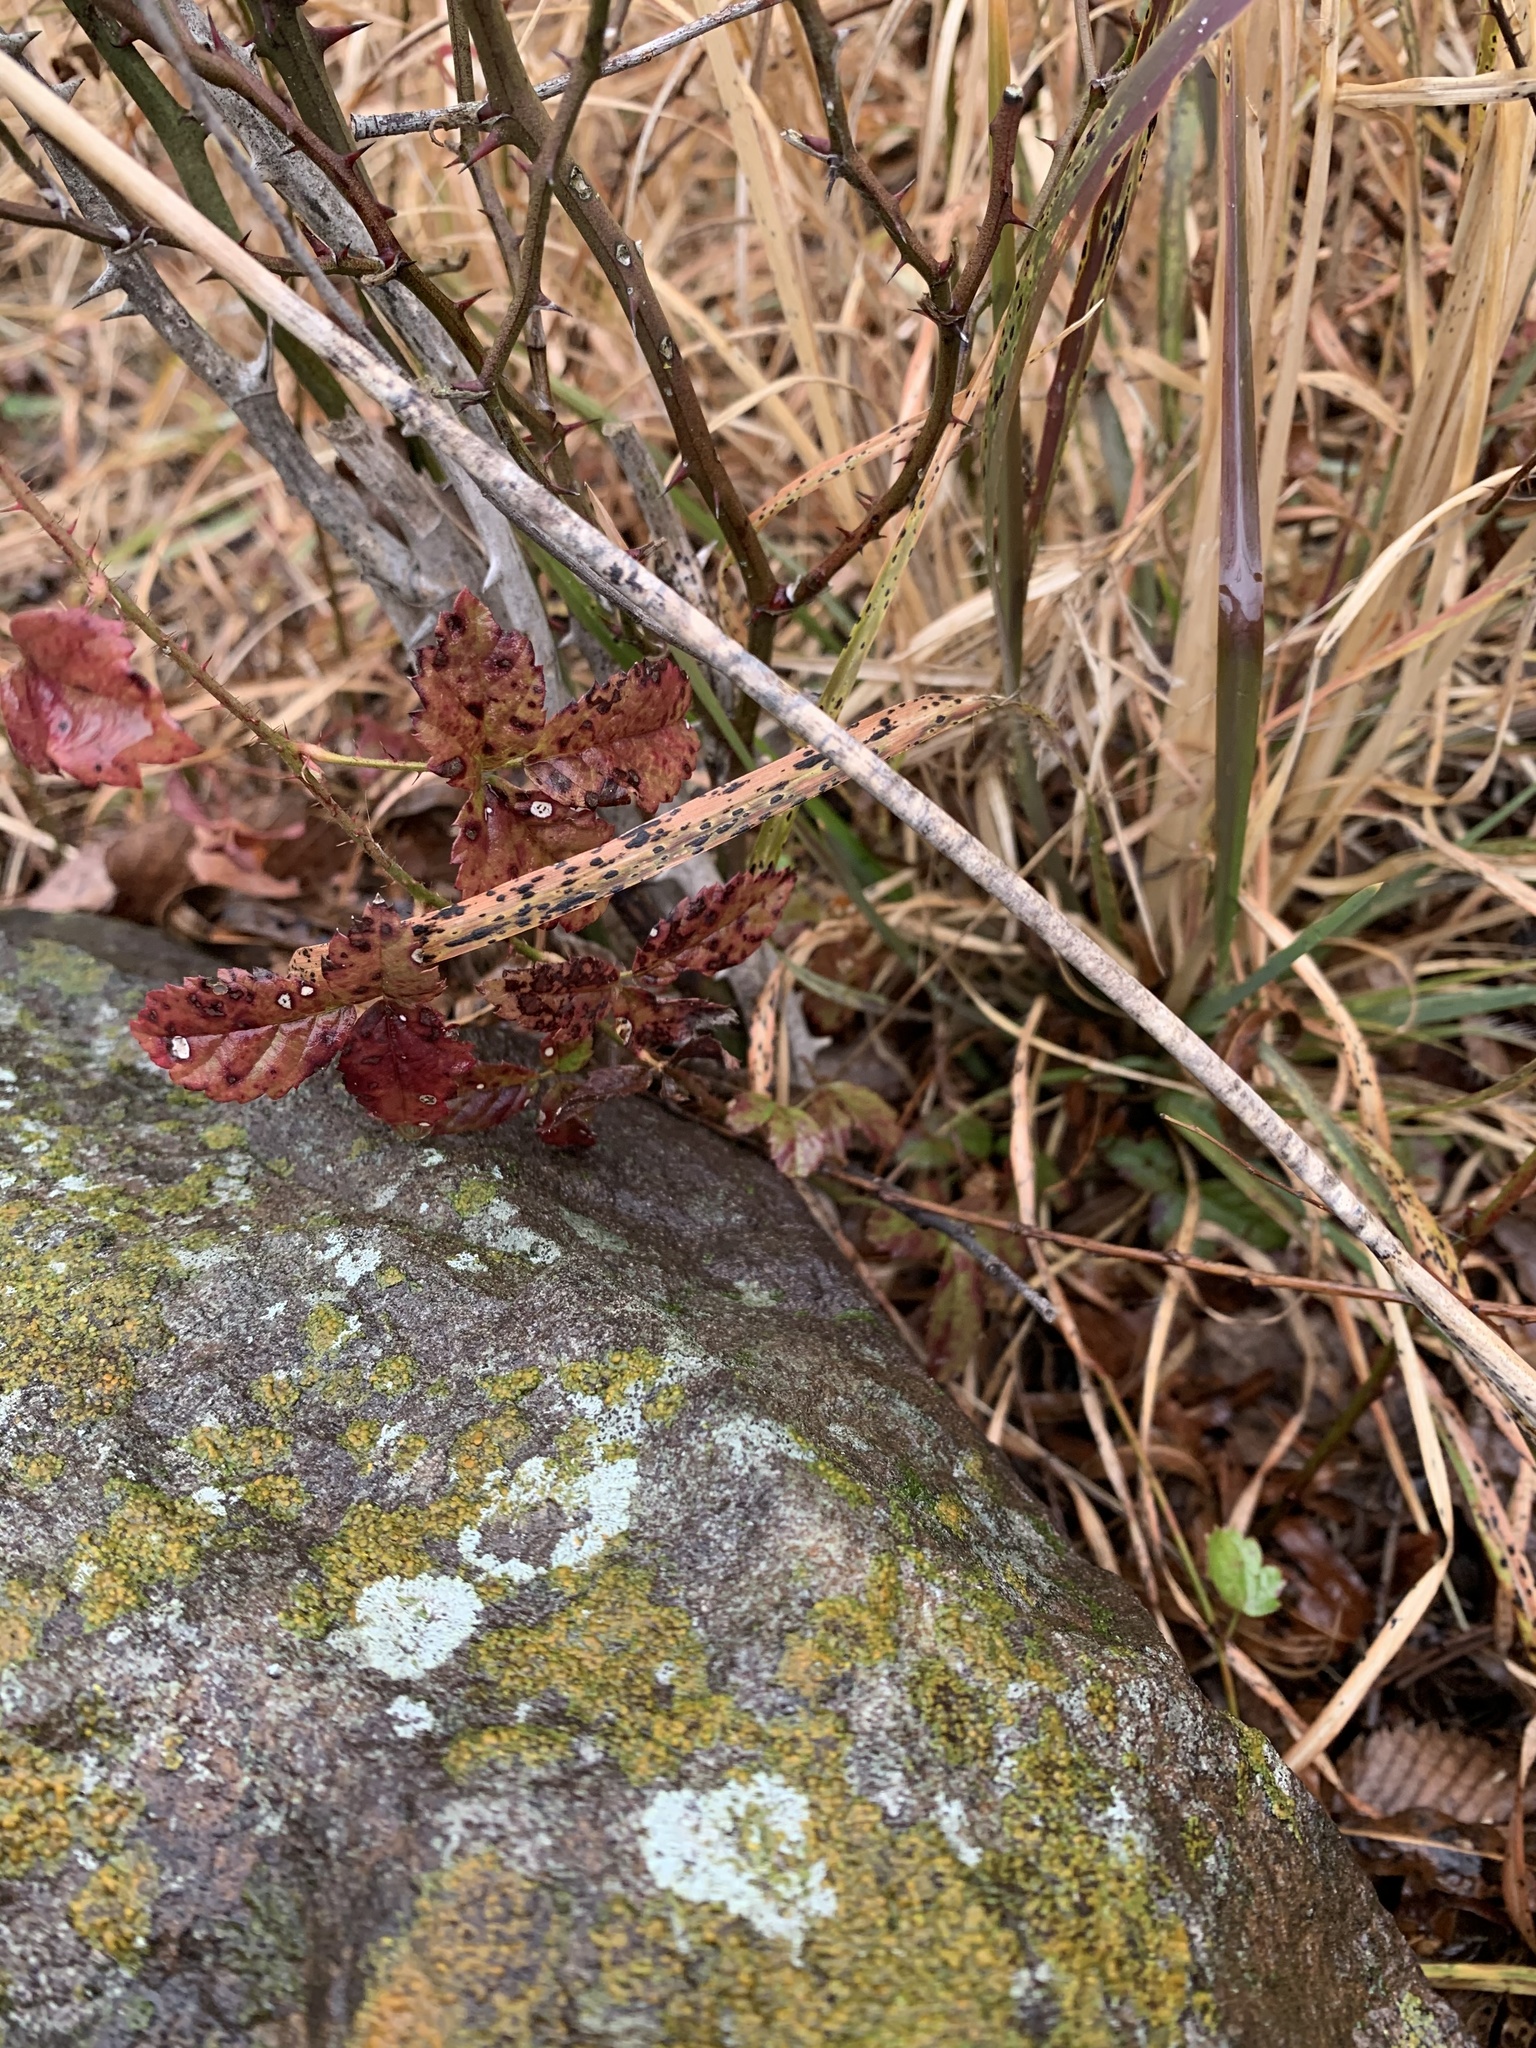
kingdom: Plantae
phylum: Tracheophyta
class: Magnoliopsida
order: Rosales
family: Rosaceae
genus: Rubus
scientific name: Rubus trivialis
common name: Southern dewberry
